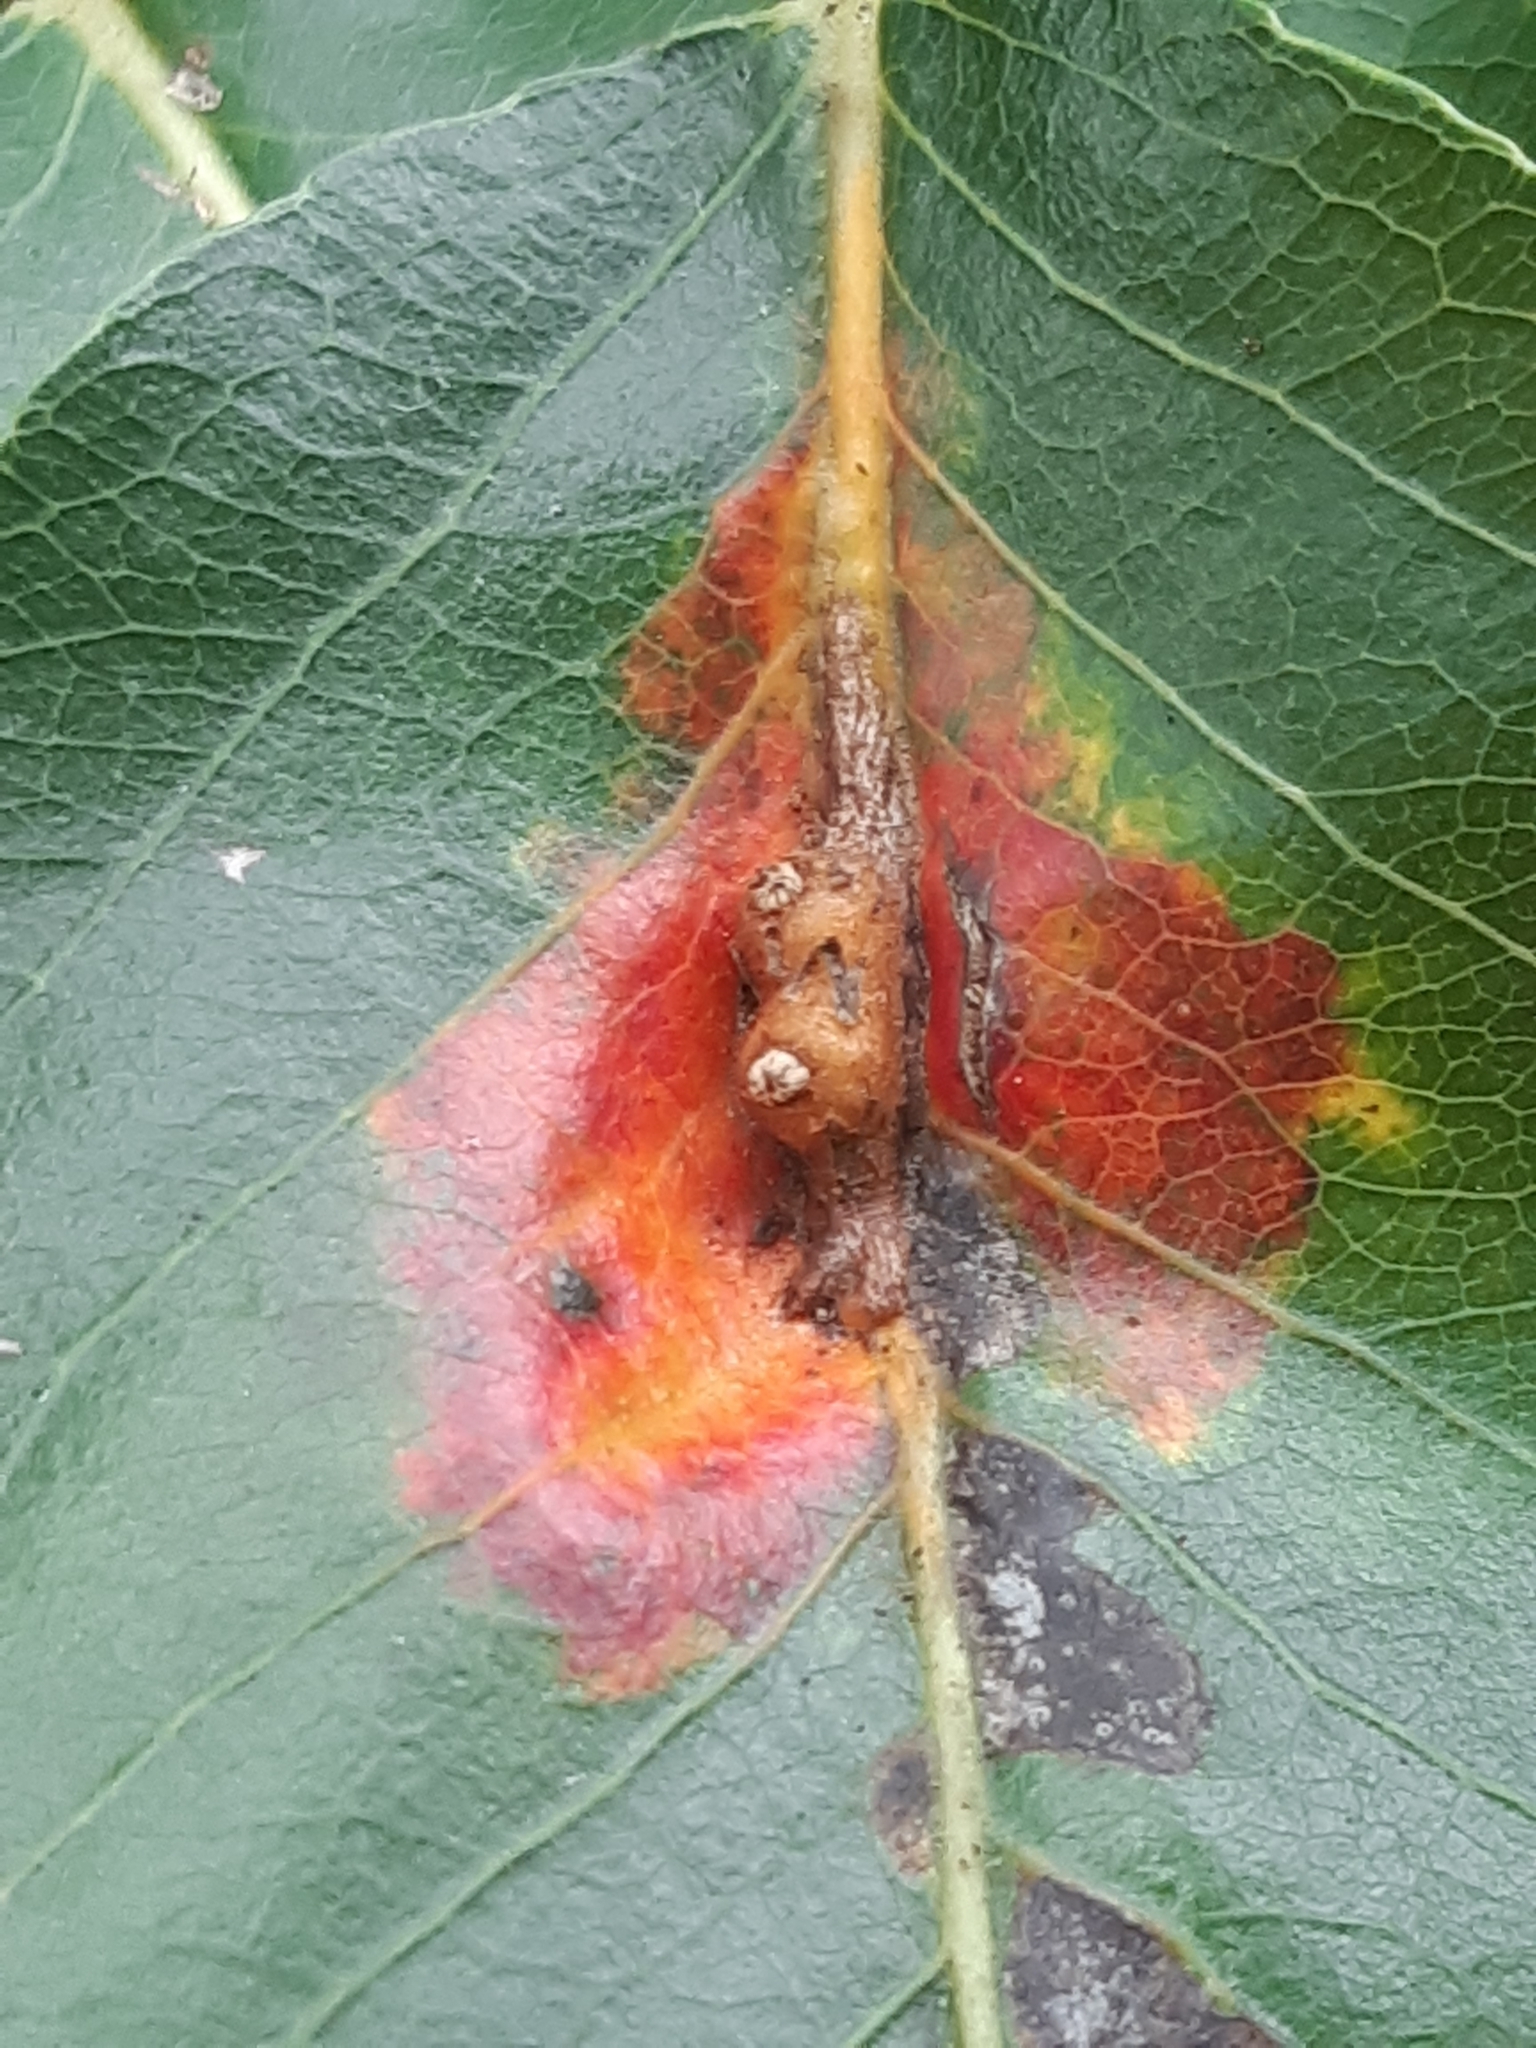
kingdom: Fungi
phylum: Basidiomycota
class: Pucciniomycetes
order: Pucciniales
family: Gymnosporangiaceae
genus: Gymnosporangium
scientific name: Gymnosporangium sabinae
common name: Pear trellis rust fungus
